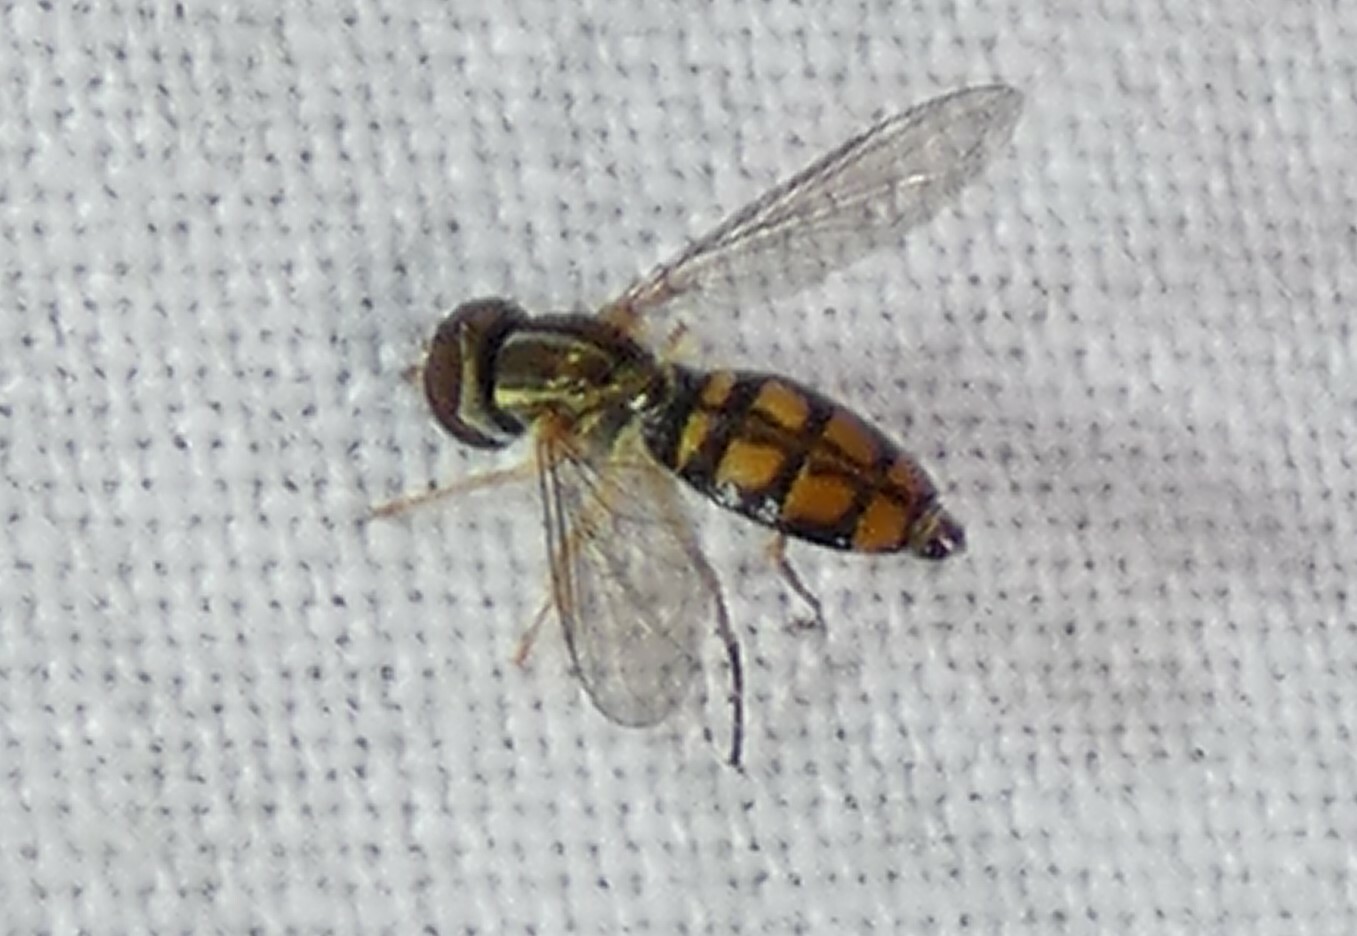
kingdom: Animalia
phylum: Arthropoda
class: Insecta
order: Diptera
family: Syrphidae
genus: Toxomerus
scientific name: Toxomerus floralis
